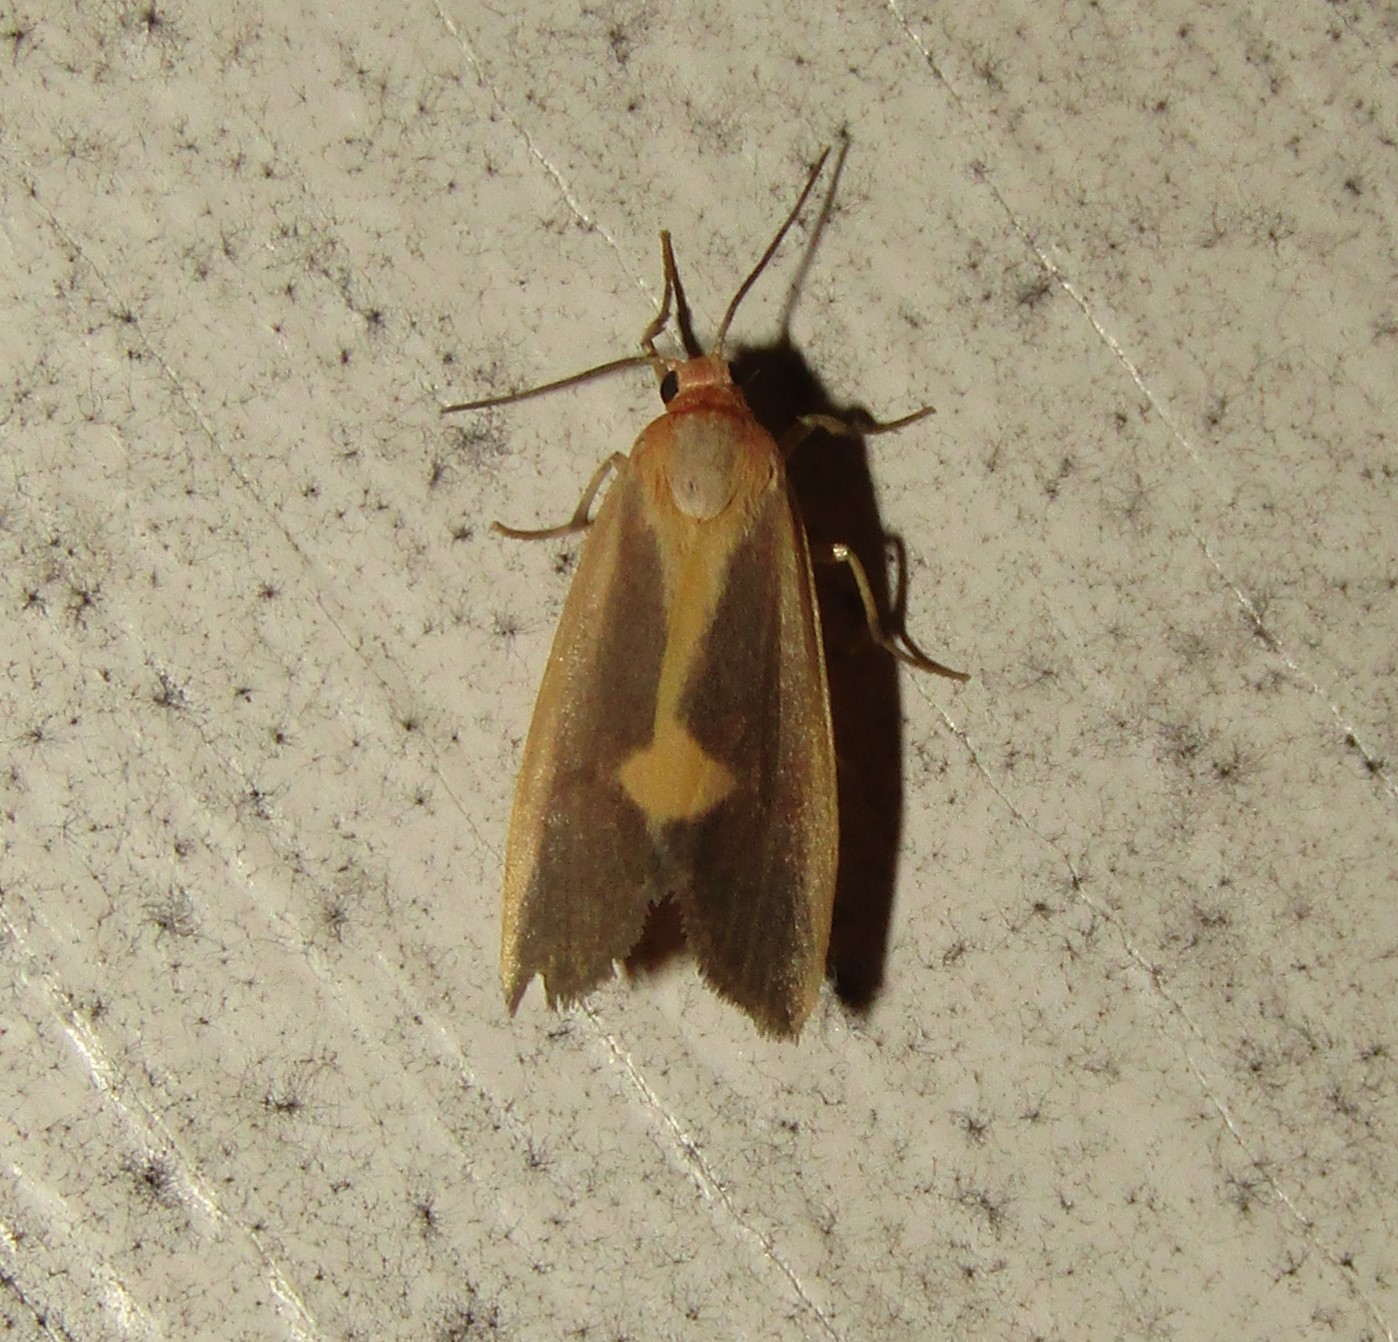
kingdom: Animalia
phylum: Arthropoda
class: Insecta
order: Lepidoptera
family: Erebidae
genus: Cisthene
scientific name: Cisthene plumbea
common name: Lead colored lichen moth
